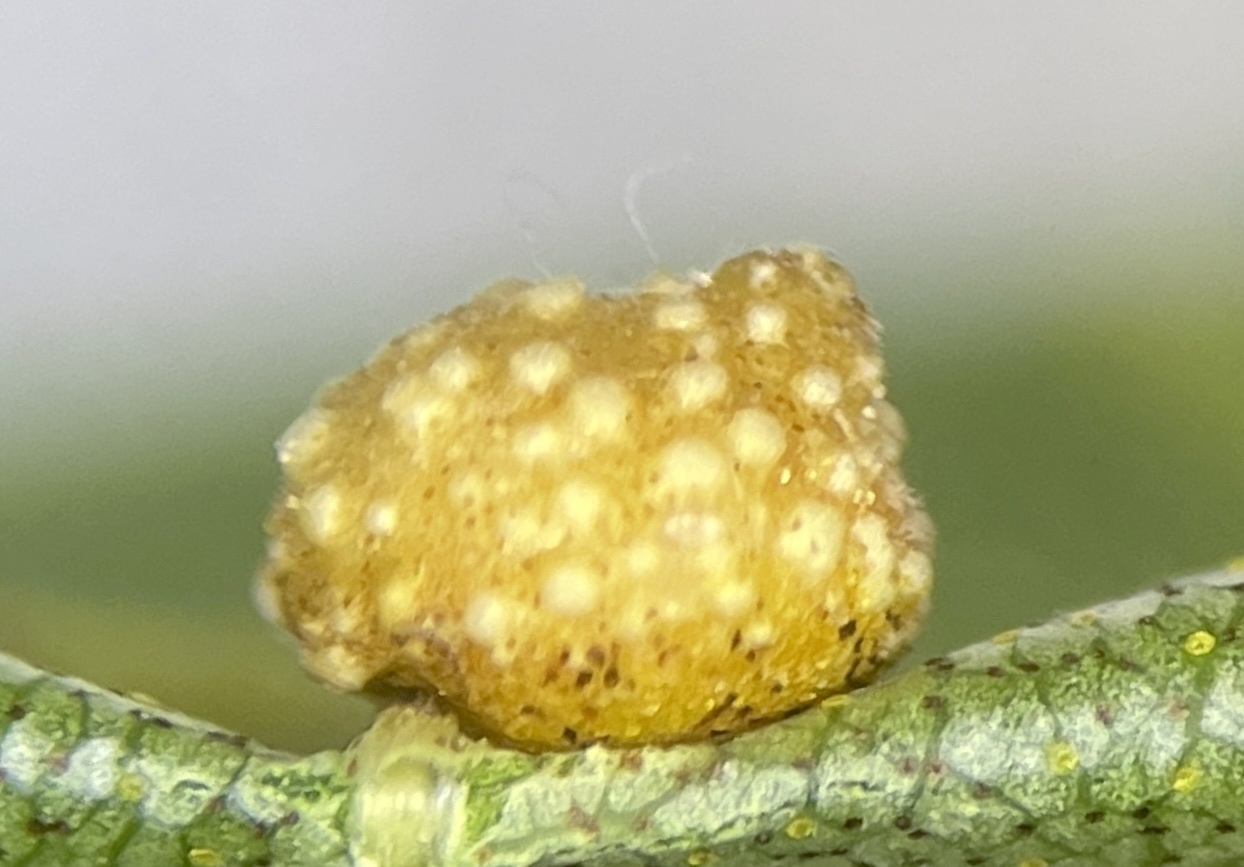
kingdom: Animalia
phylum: Arthropoda
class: Insecta
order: Diptera
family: Cecidomyiidae
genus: Caryomyia
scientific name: Caryomyia glebosa
